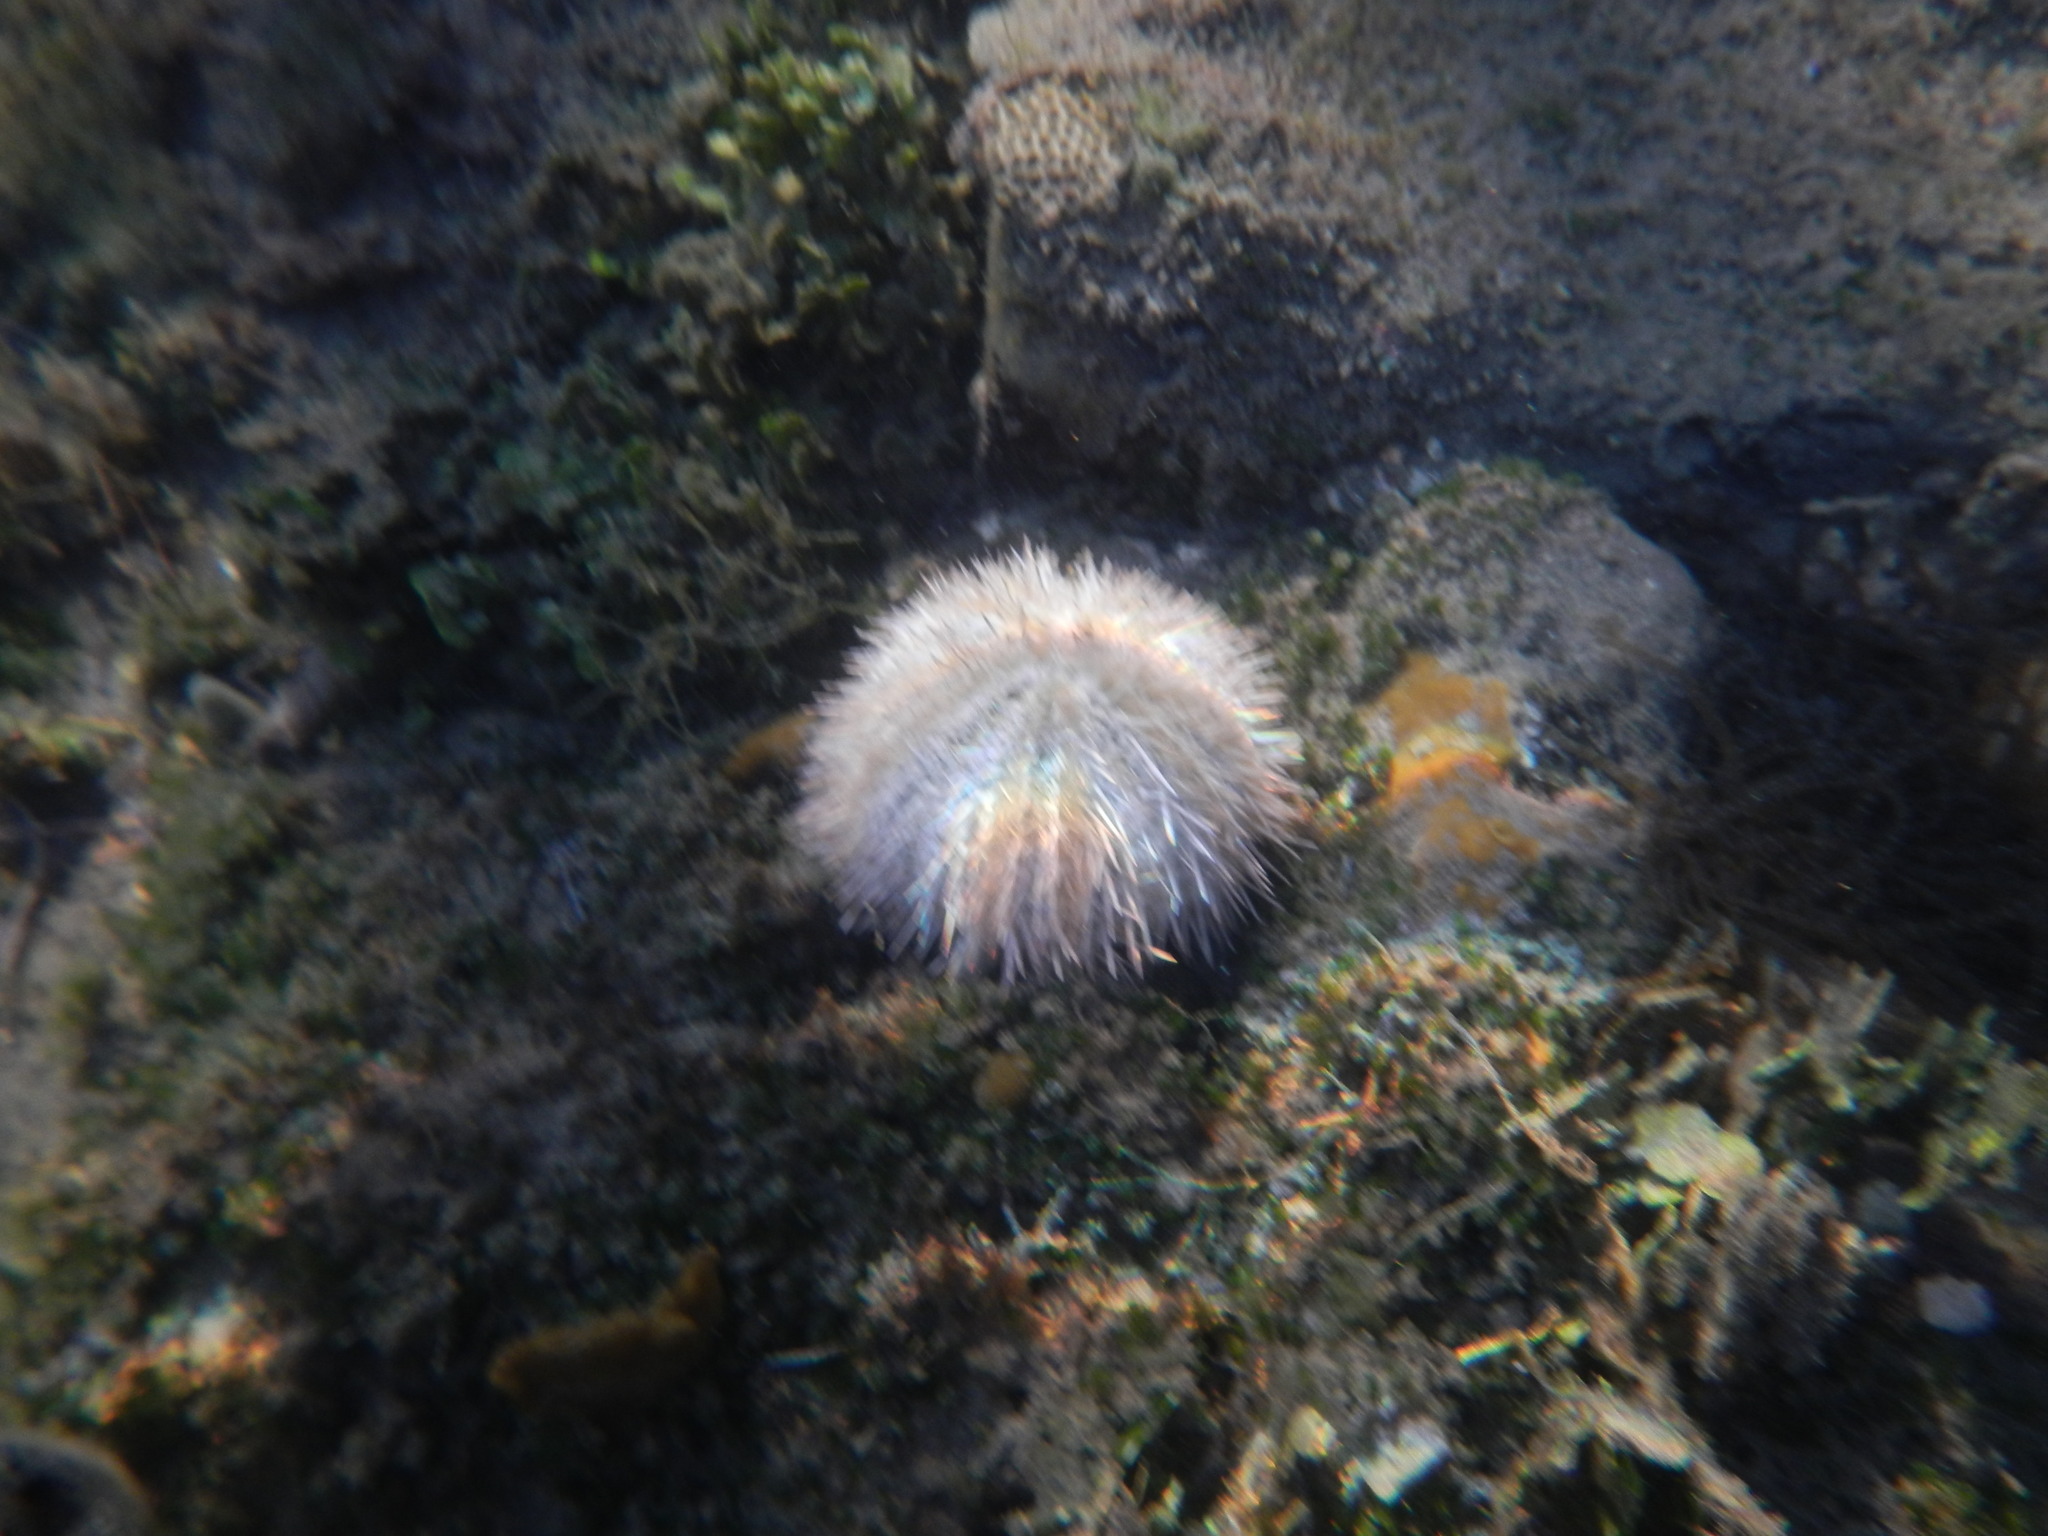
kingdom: Animalia
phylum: Echinodermata
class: Echinoidea
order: Camarodonta
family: Toxopneustidae
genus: Lytechinus
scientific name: Lytechinus variegatus
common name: Variegated urchin
